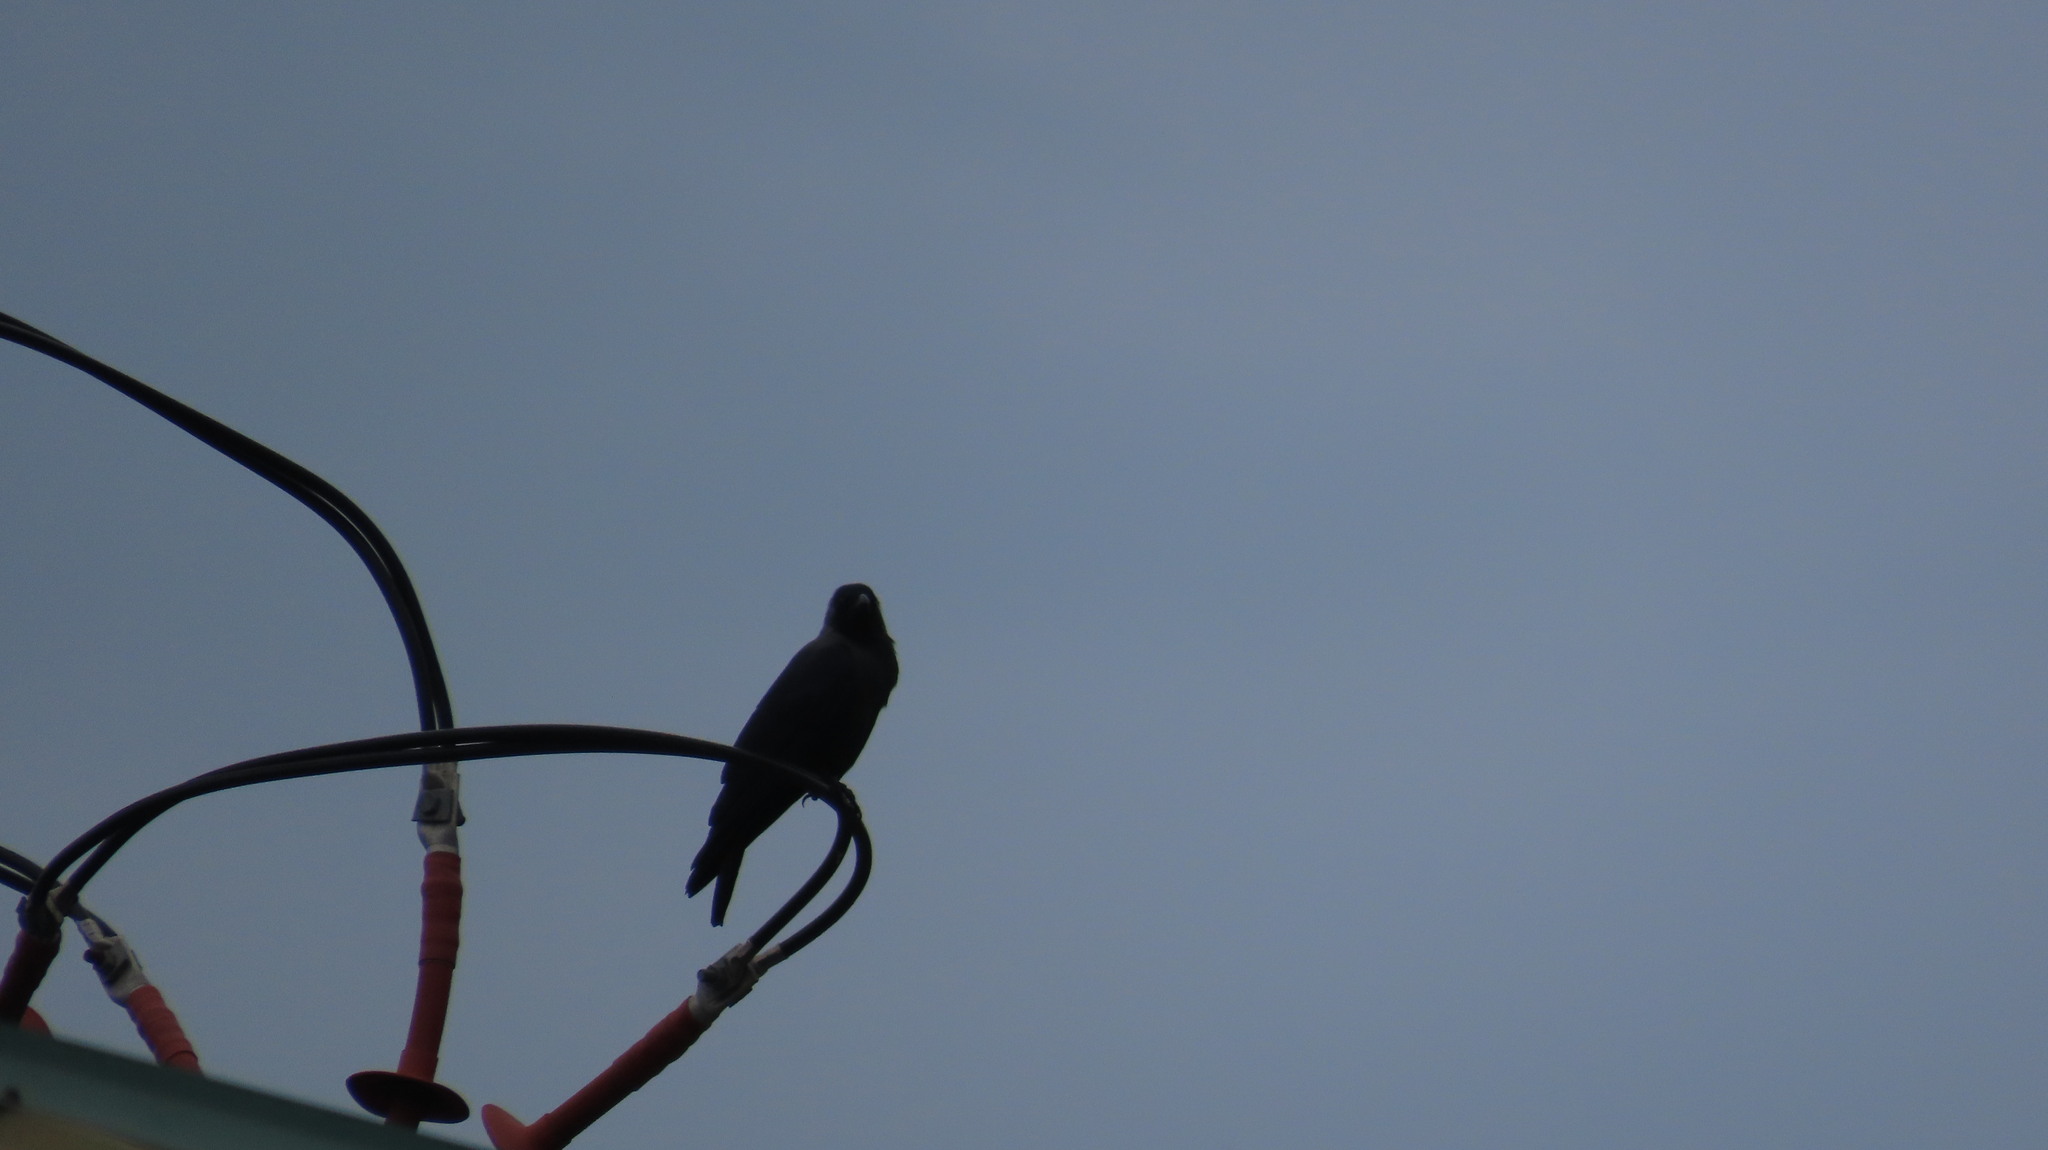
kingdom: Animalia
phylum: Chordata
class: Aves
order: Passeriformes
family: Corvidae
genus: Corvus
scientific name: Corvus splendens
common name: House crow
